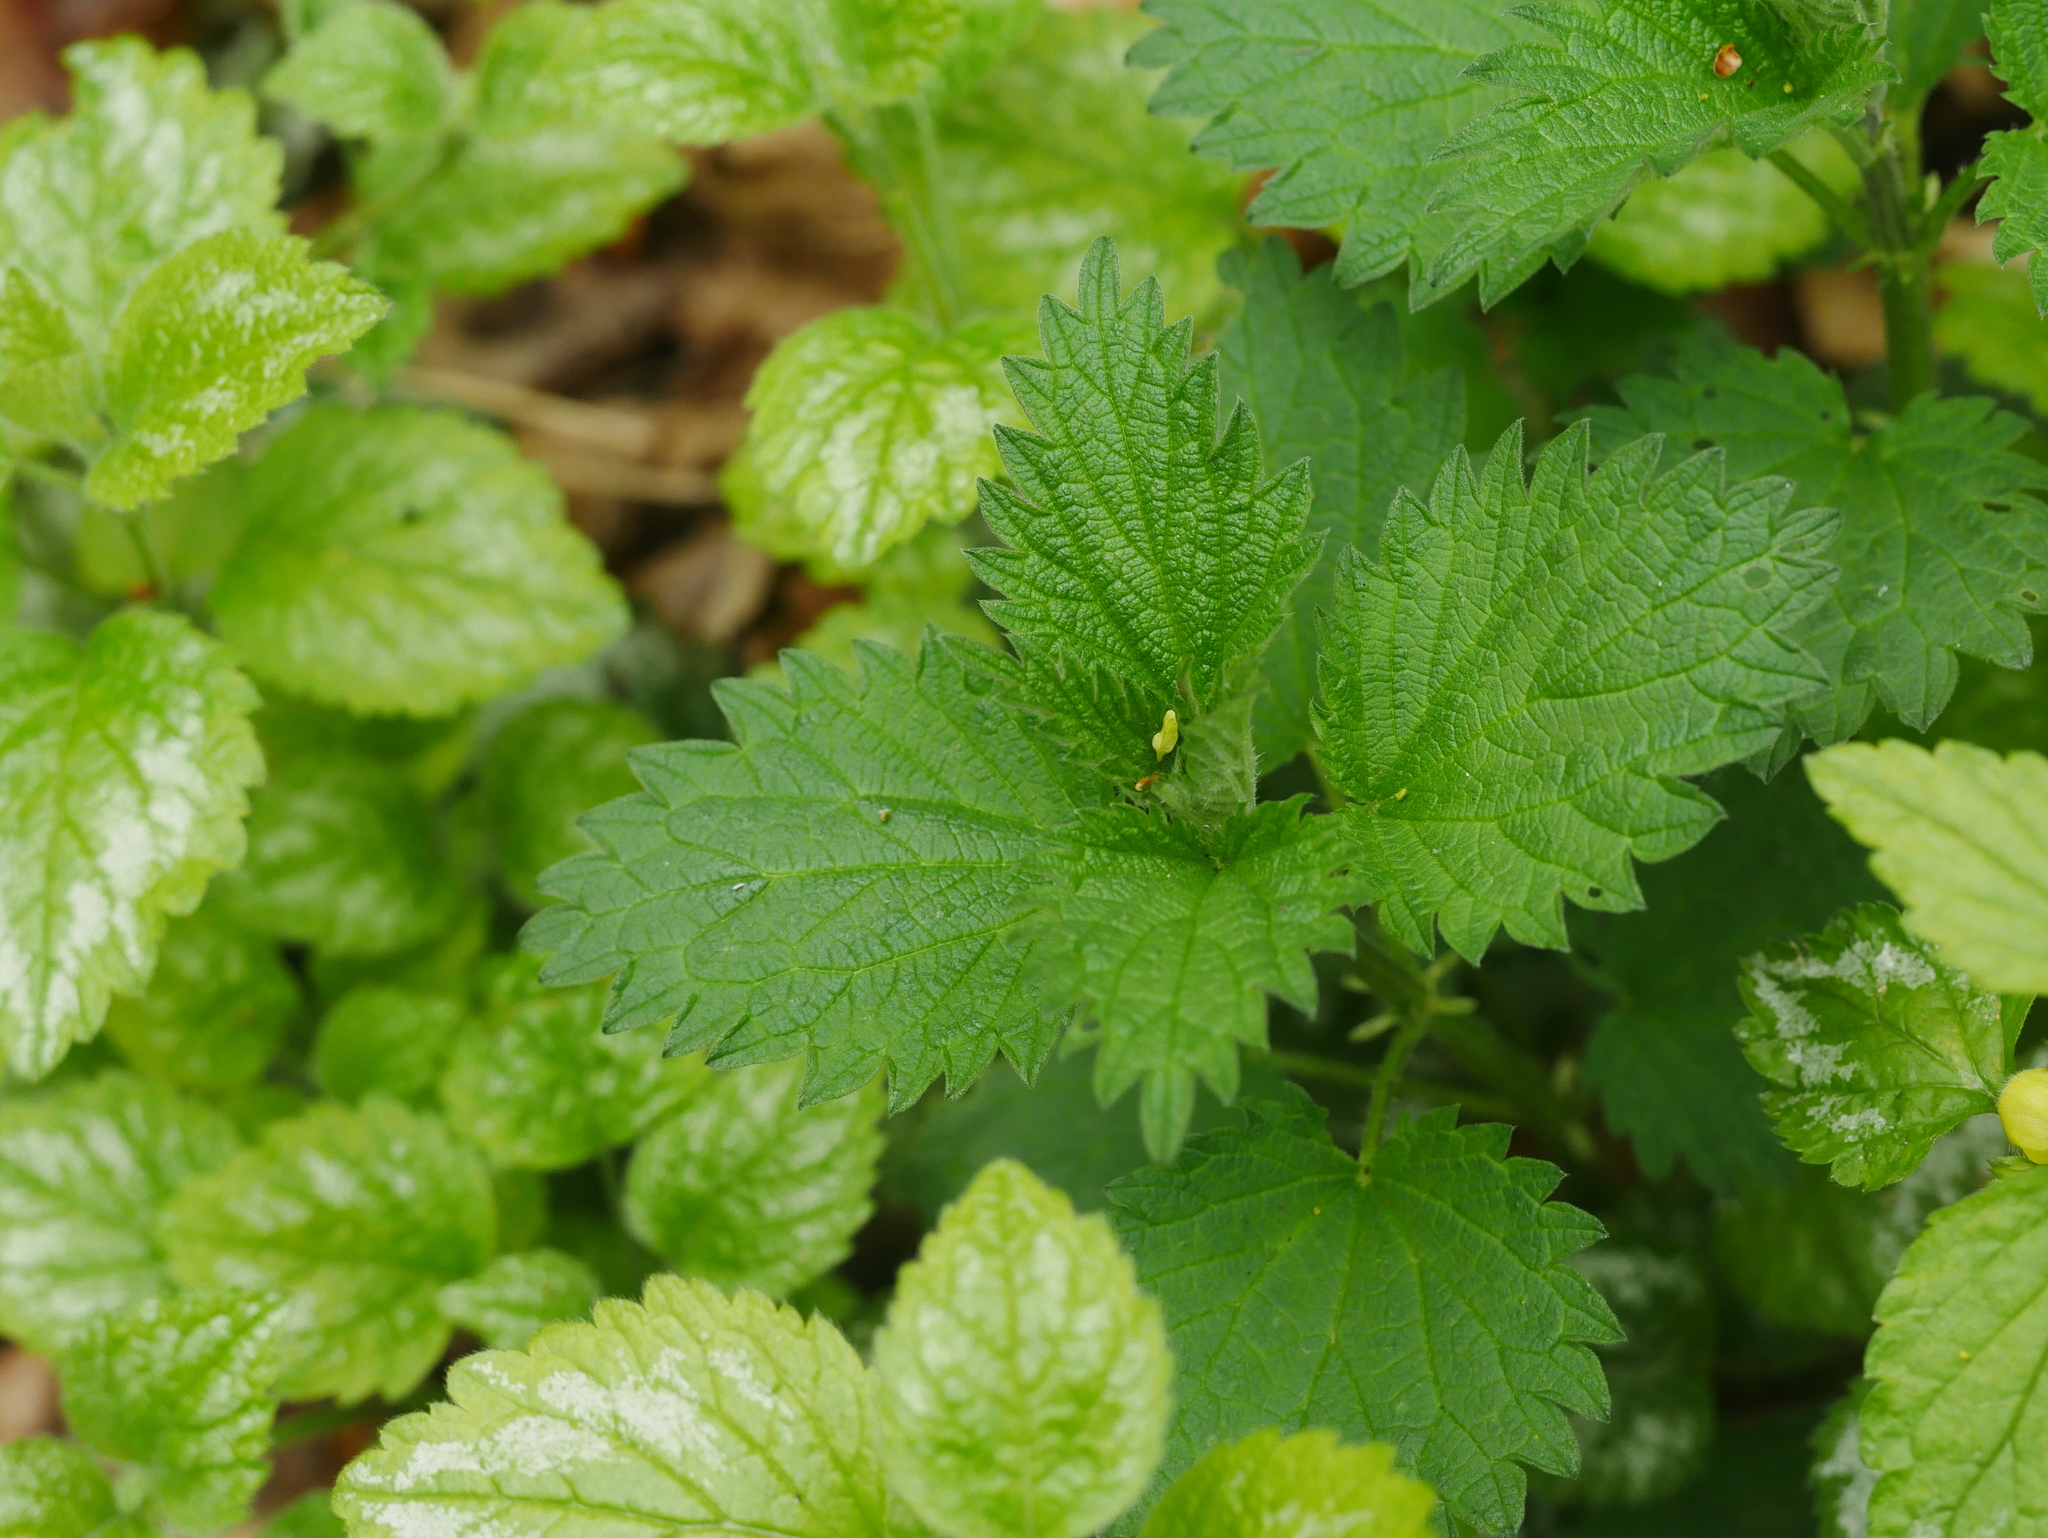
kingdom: Plantae
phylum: Tracheophyta
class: Magnoliopsida
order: Rosales
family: Urticaceae
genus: Urtica
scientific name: Urtica dioica
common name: Common nettle
